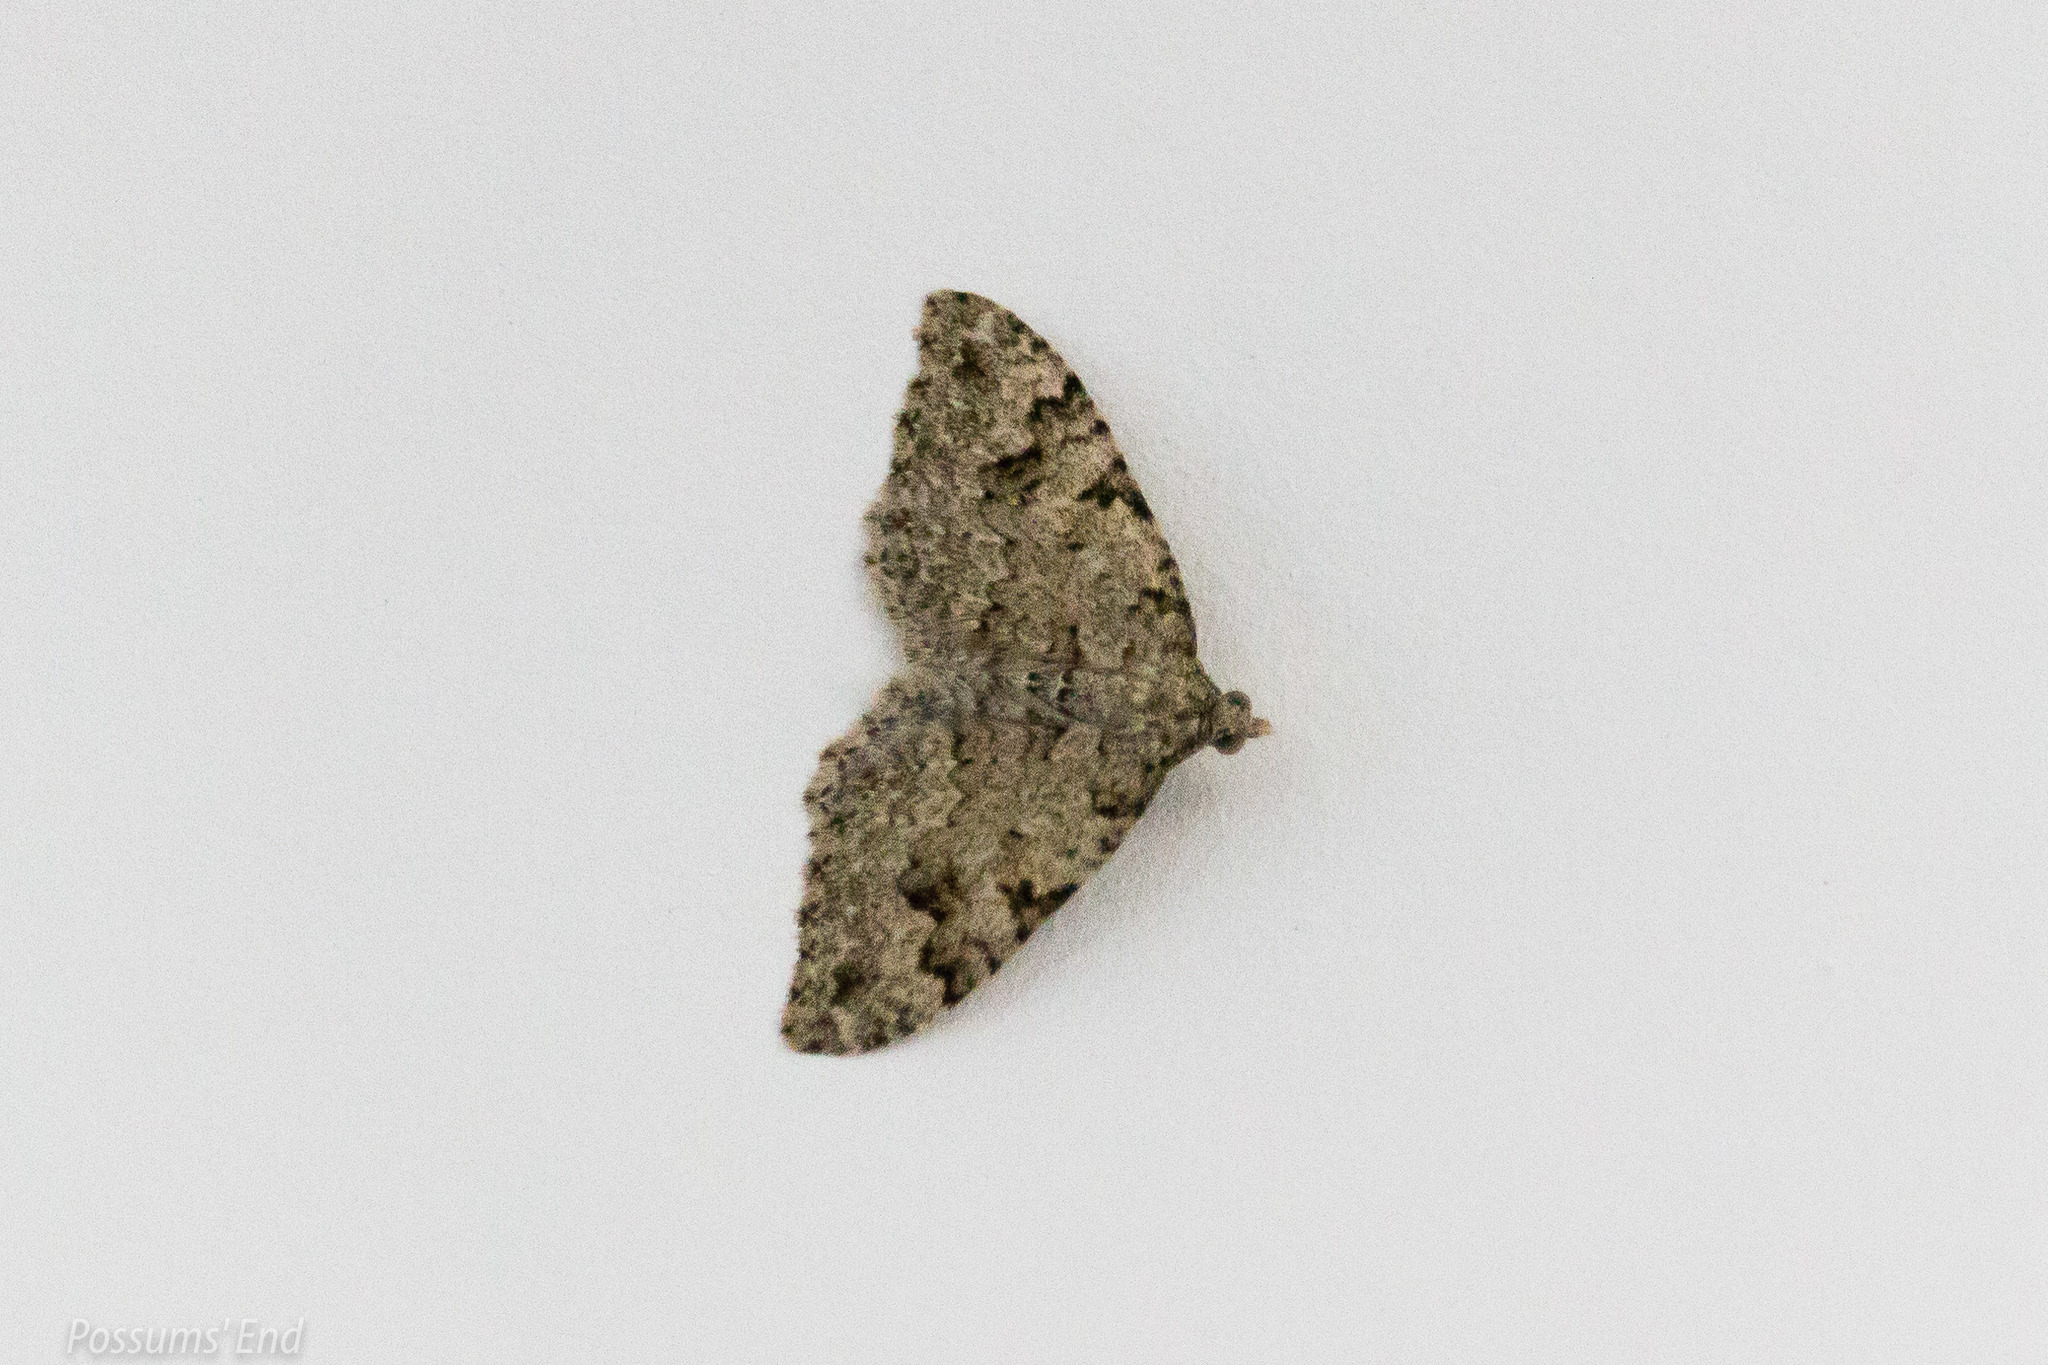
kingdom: Animalia
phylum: Arthropoda
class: Insecta
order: Lepidoptera
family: Geometridae
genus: Helastia
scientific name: Helastia cinerearia
